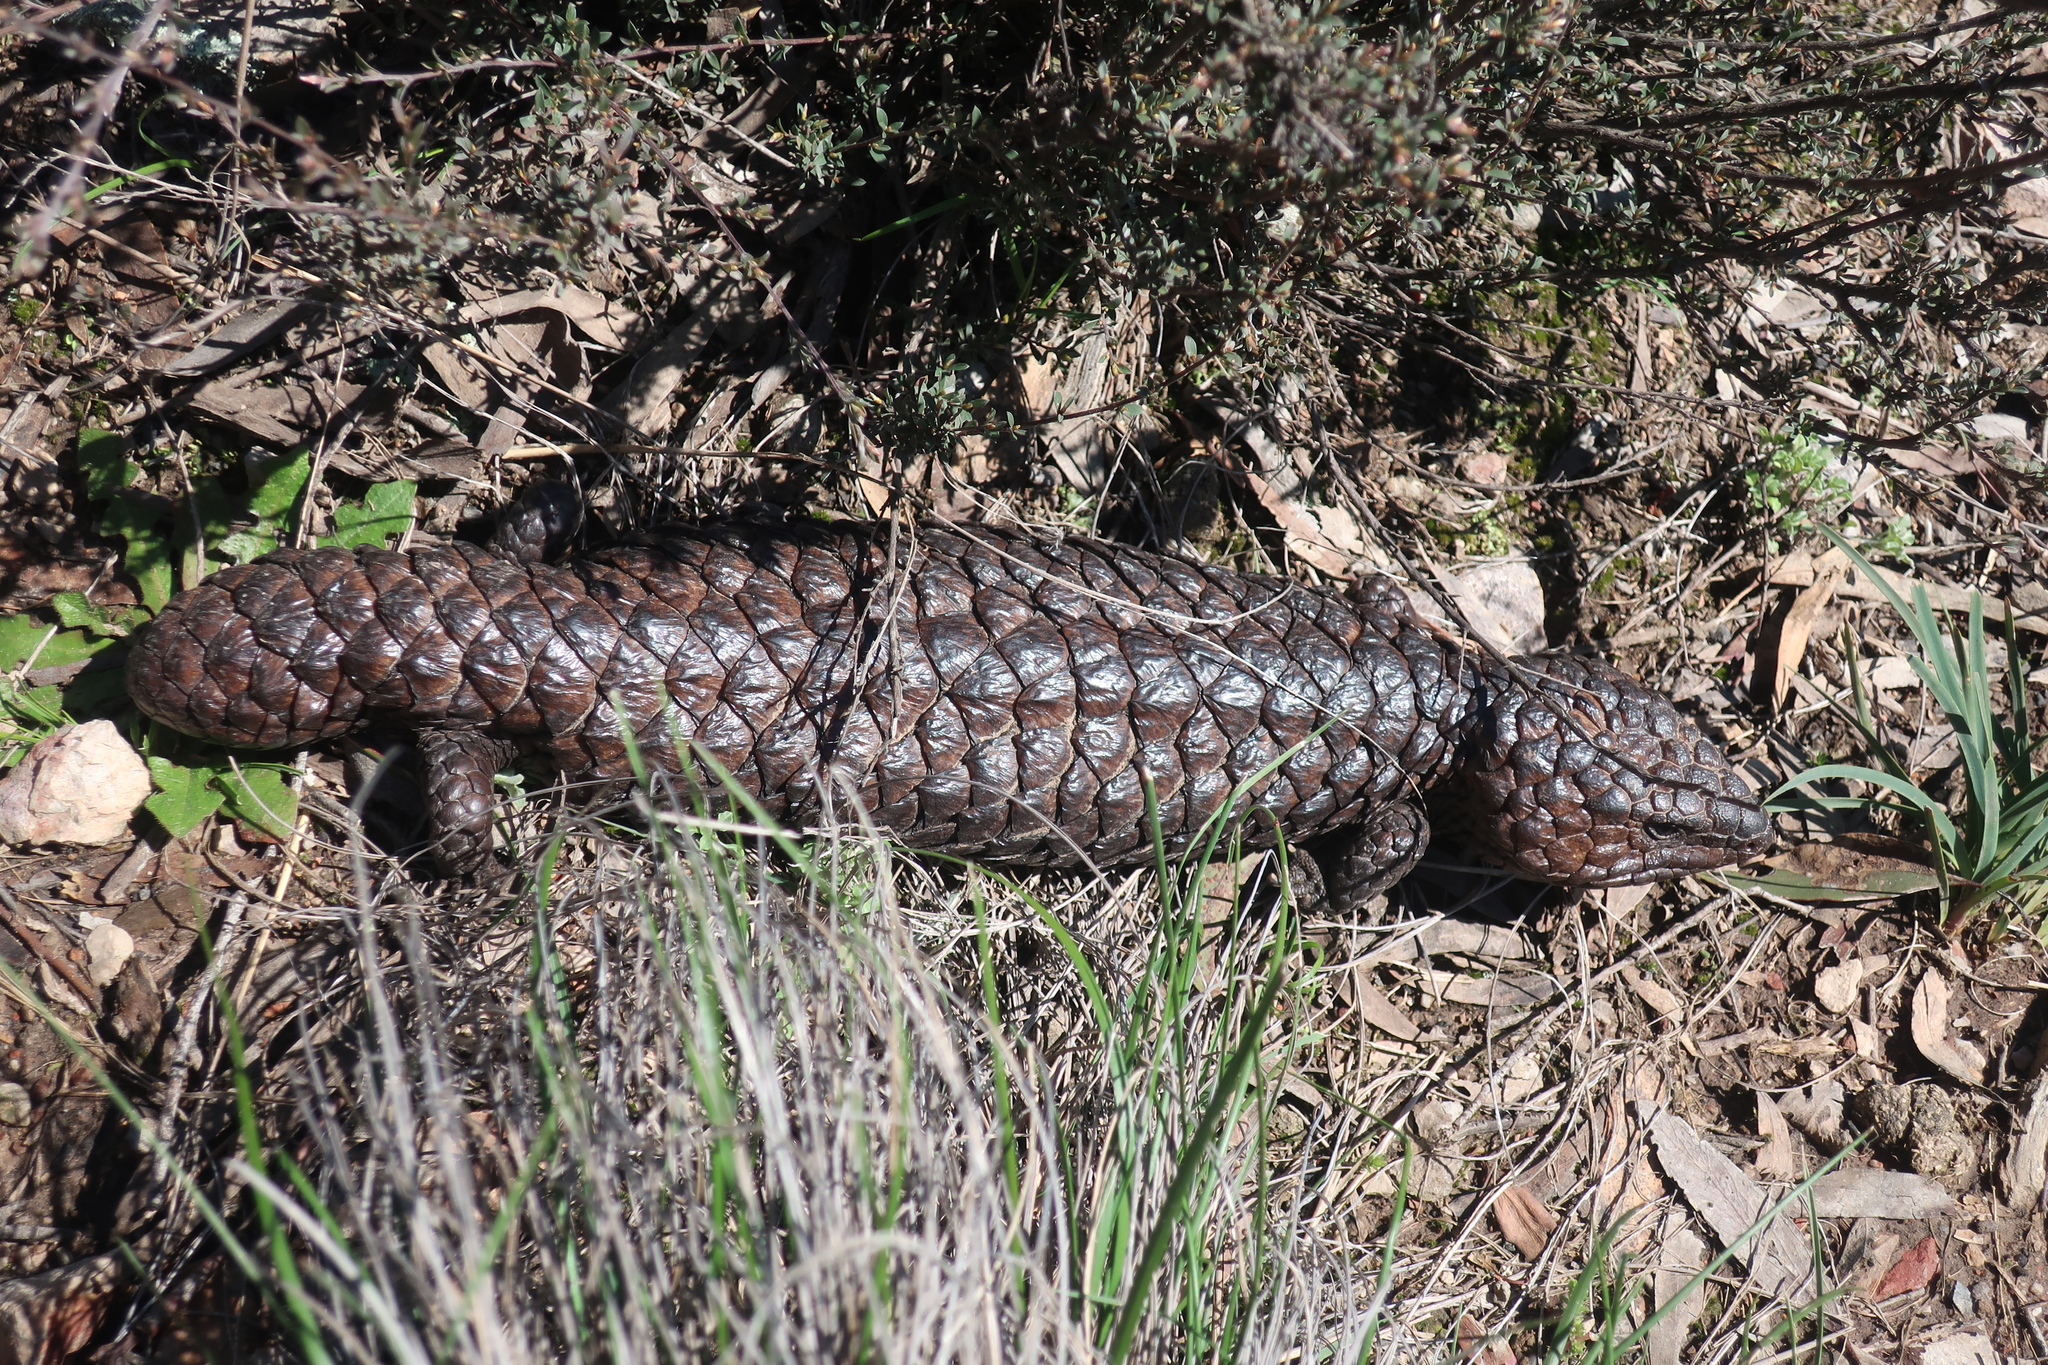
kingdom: Animalia
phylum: Chordata
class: Squamata
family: Scincidae
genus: Tiliqua
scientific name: Tiliqua rugosa
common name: Pinecone lizard
